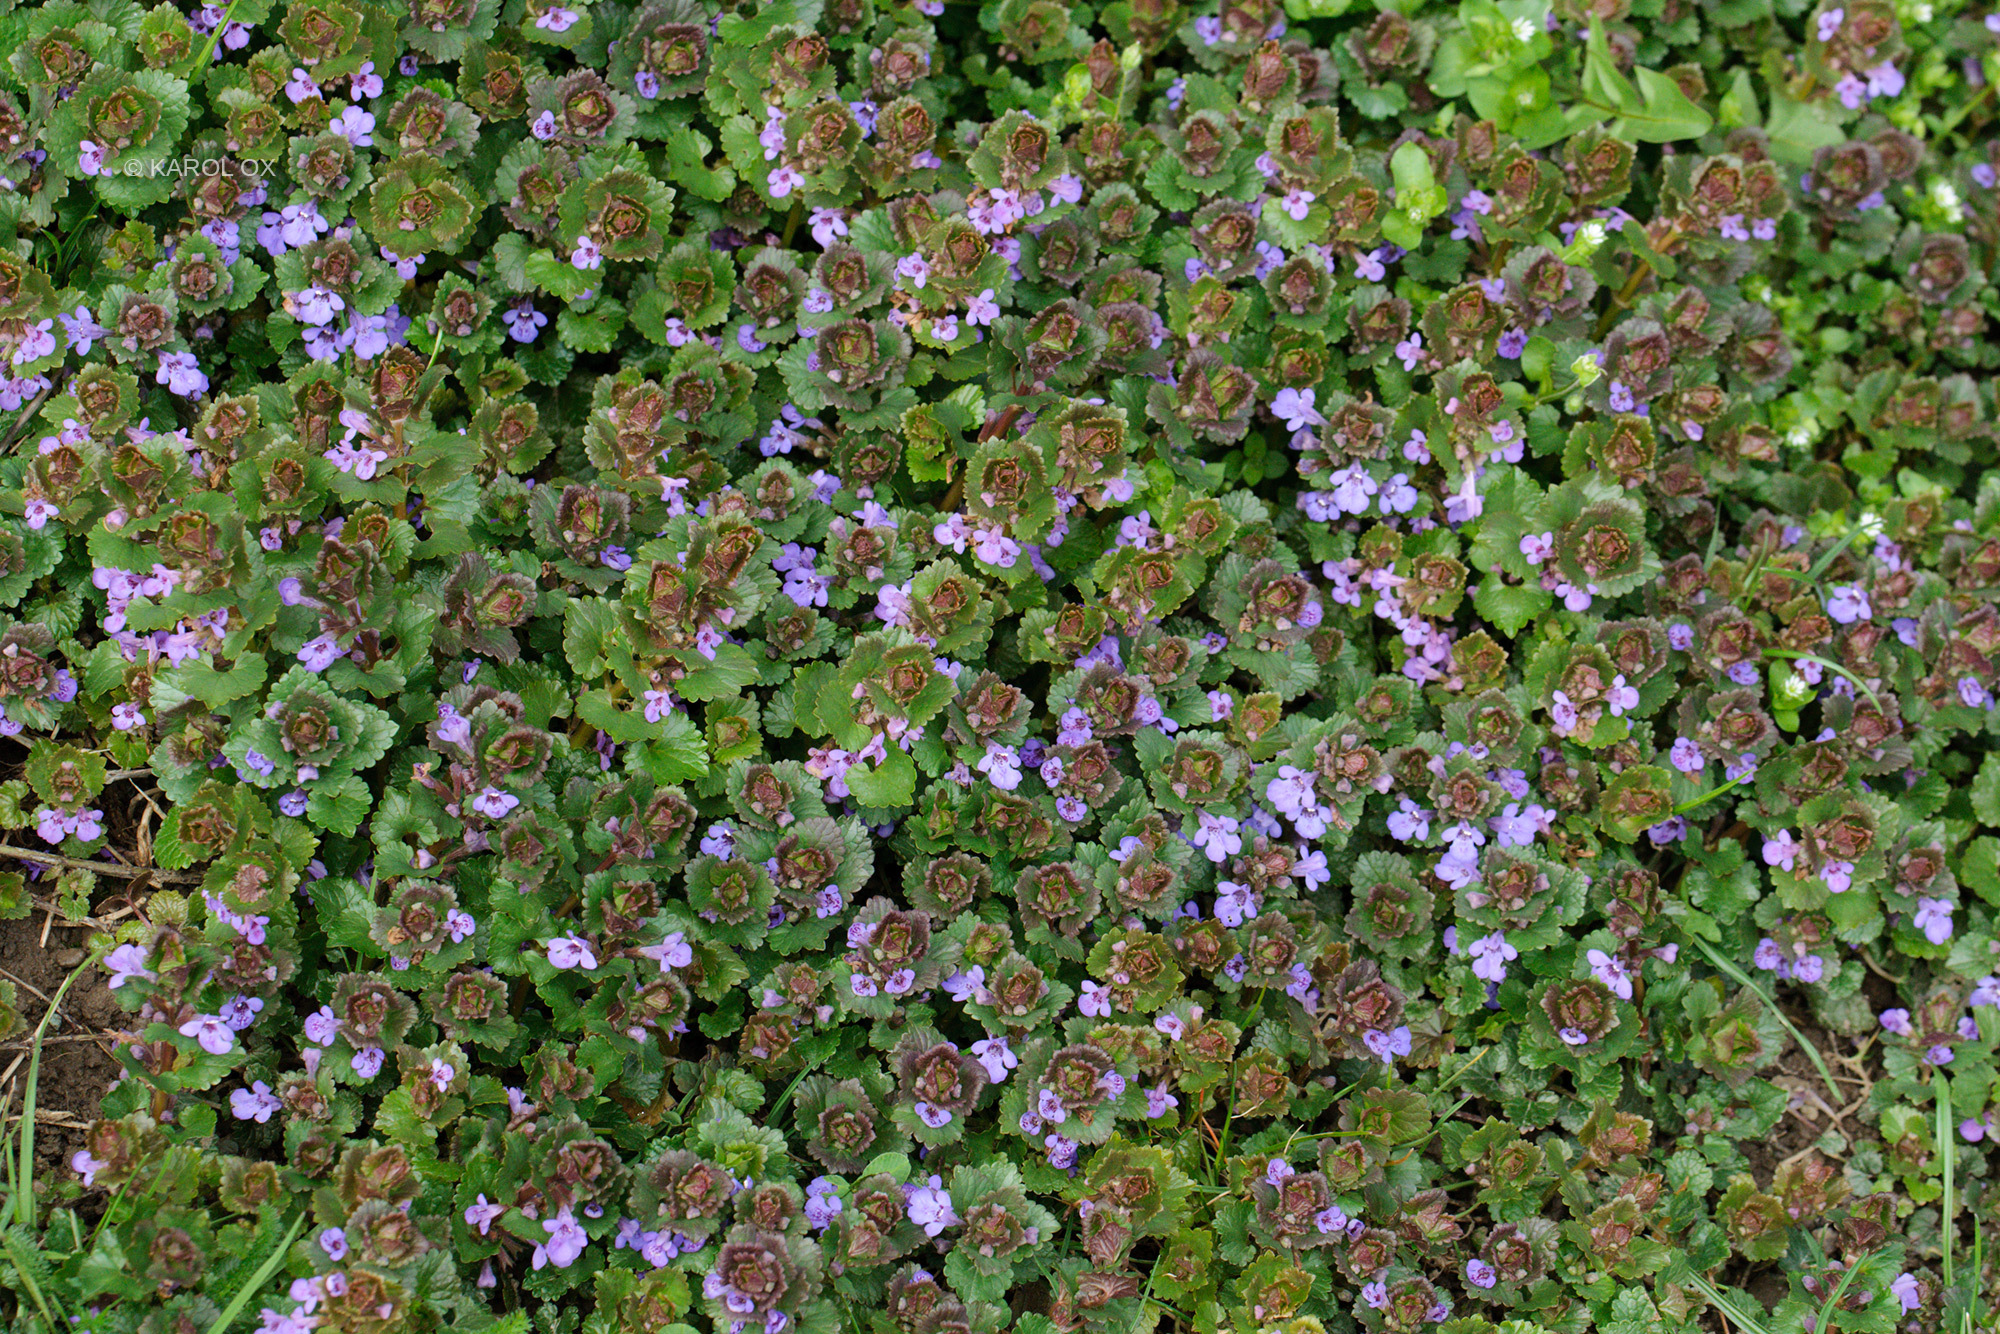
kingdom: Plantae
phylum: Tracheophyta
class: Magnoliopsida
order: Lamiales
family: Lamiaceae
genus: Glechoma
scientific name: Glechoma hederacea
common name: Ground ivy
